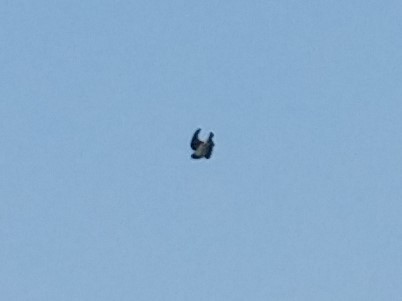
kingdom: Animalia
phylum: Chordata
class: Aves
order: Passeriformes
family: Hirundinidae
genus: Tachycineta
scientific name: Tachycineta bicolor
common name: Tree swallow
